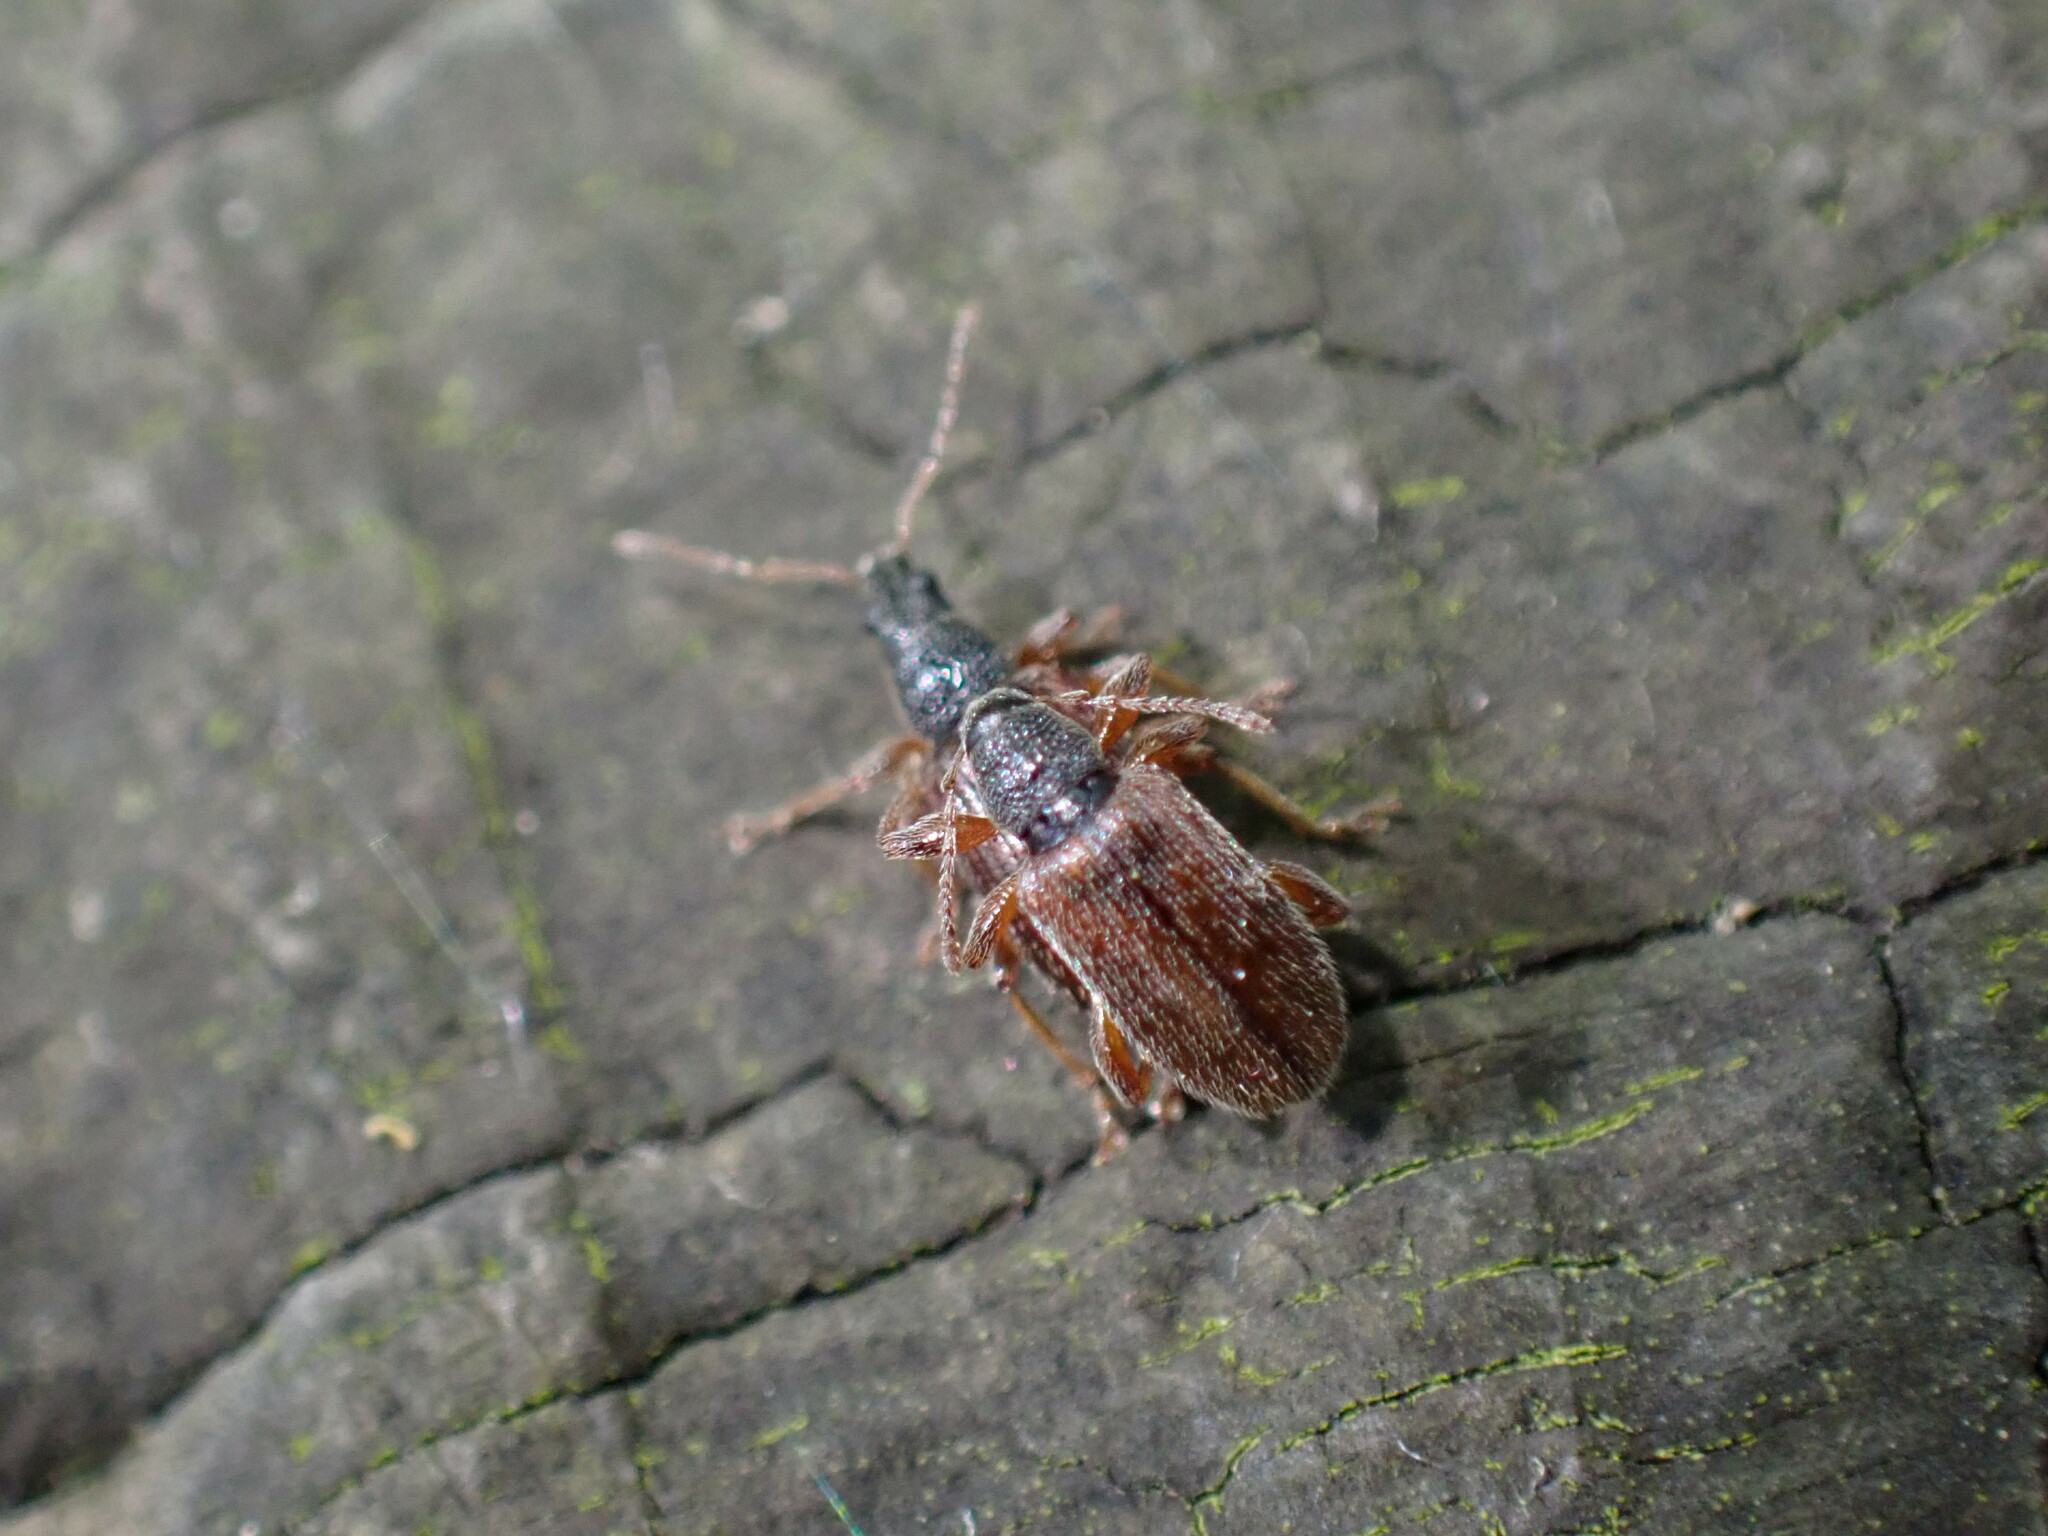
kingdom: Animalia
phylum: Arthropoda
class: Insecta
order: Coleoptera
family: Curculionidae
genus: Phyllobius
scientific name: Phyllobius oblongus
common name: Brown leaf weevil
